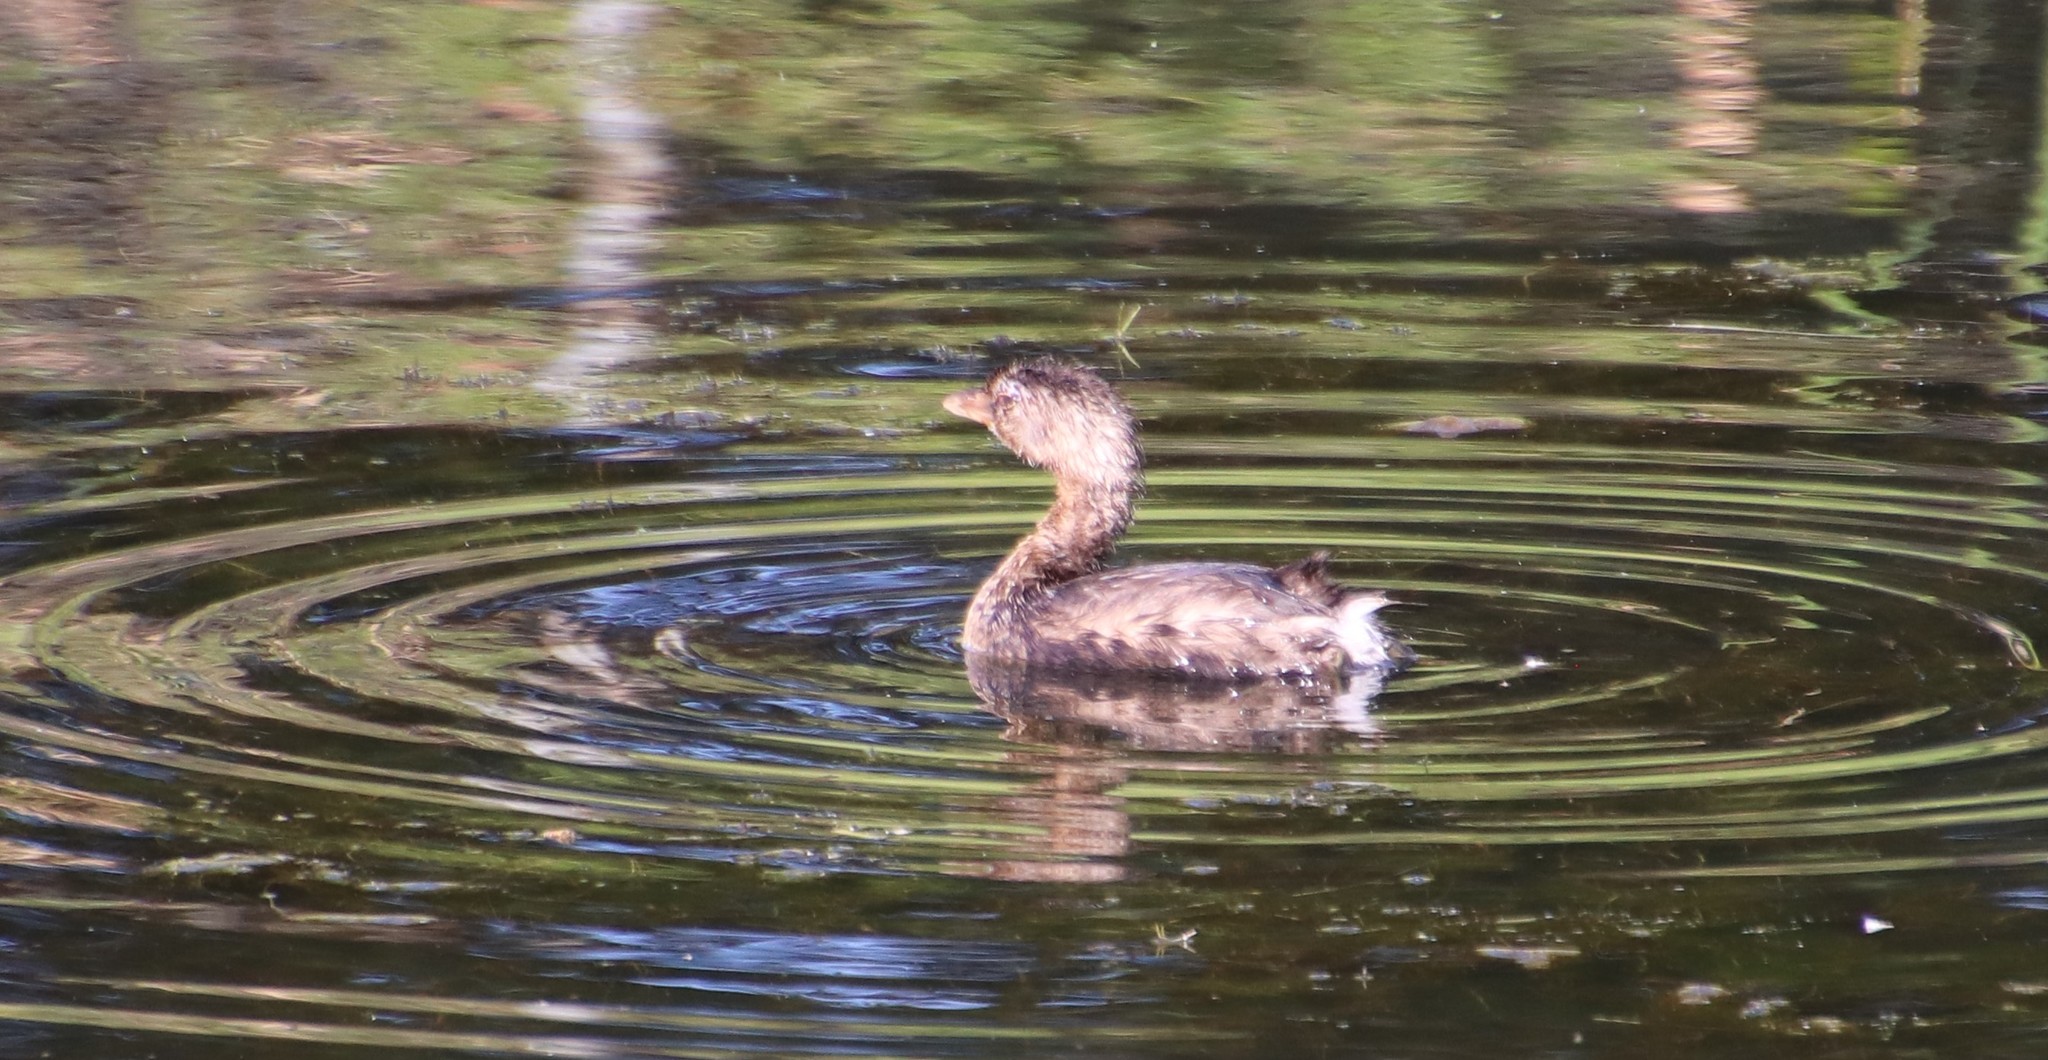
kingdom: Animalia
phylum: Chordata
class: Aves
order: Podicipediformes
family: Podicipedidae
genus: Podilymbus
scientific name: Podilymbus podiceps
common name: Pied-billed grebe
